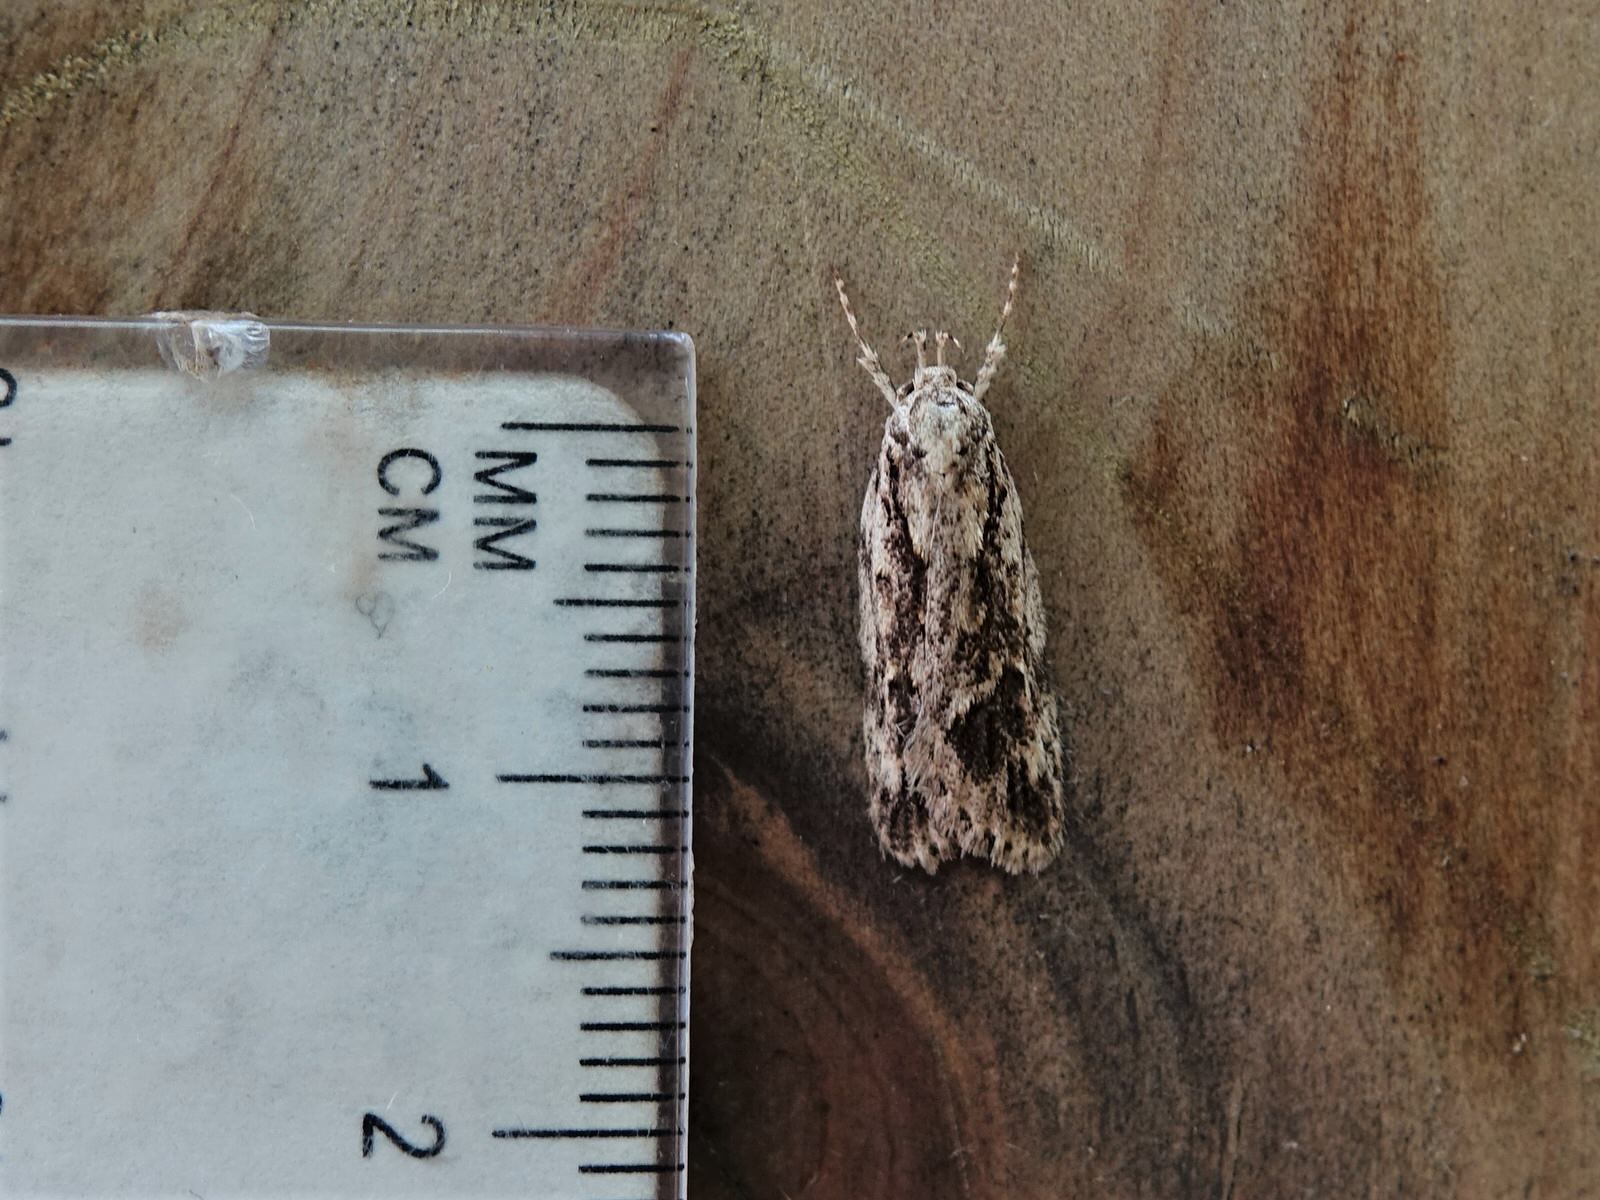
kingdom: Animalia
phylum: Arthropoda
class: Insecta
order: Lepidoptera
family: Oecophoridae
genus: Izatha
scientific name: Izatha blepharidota
